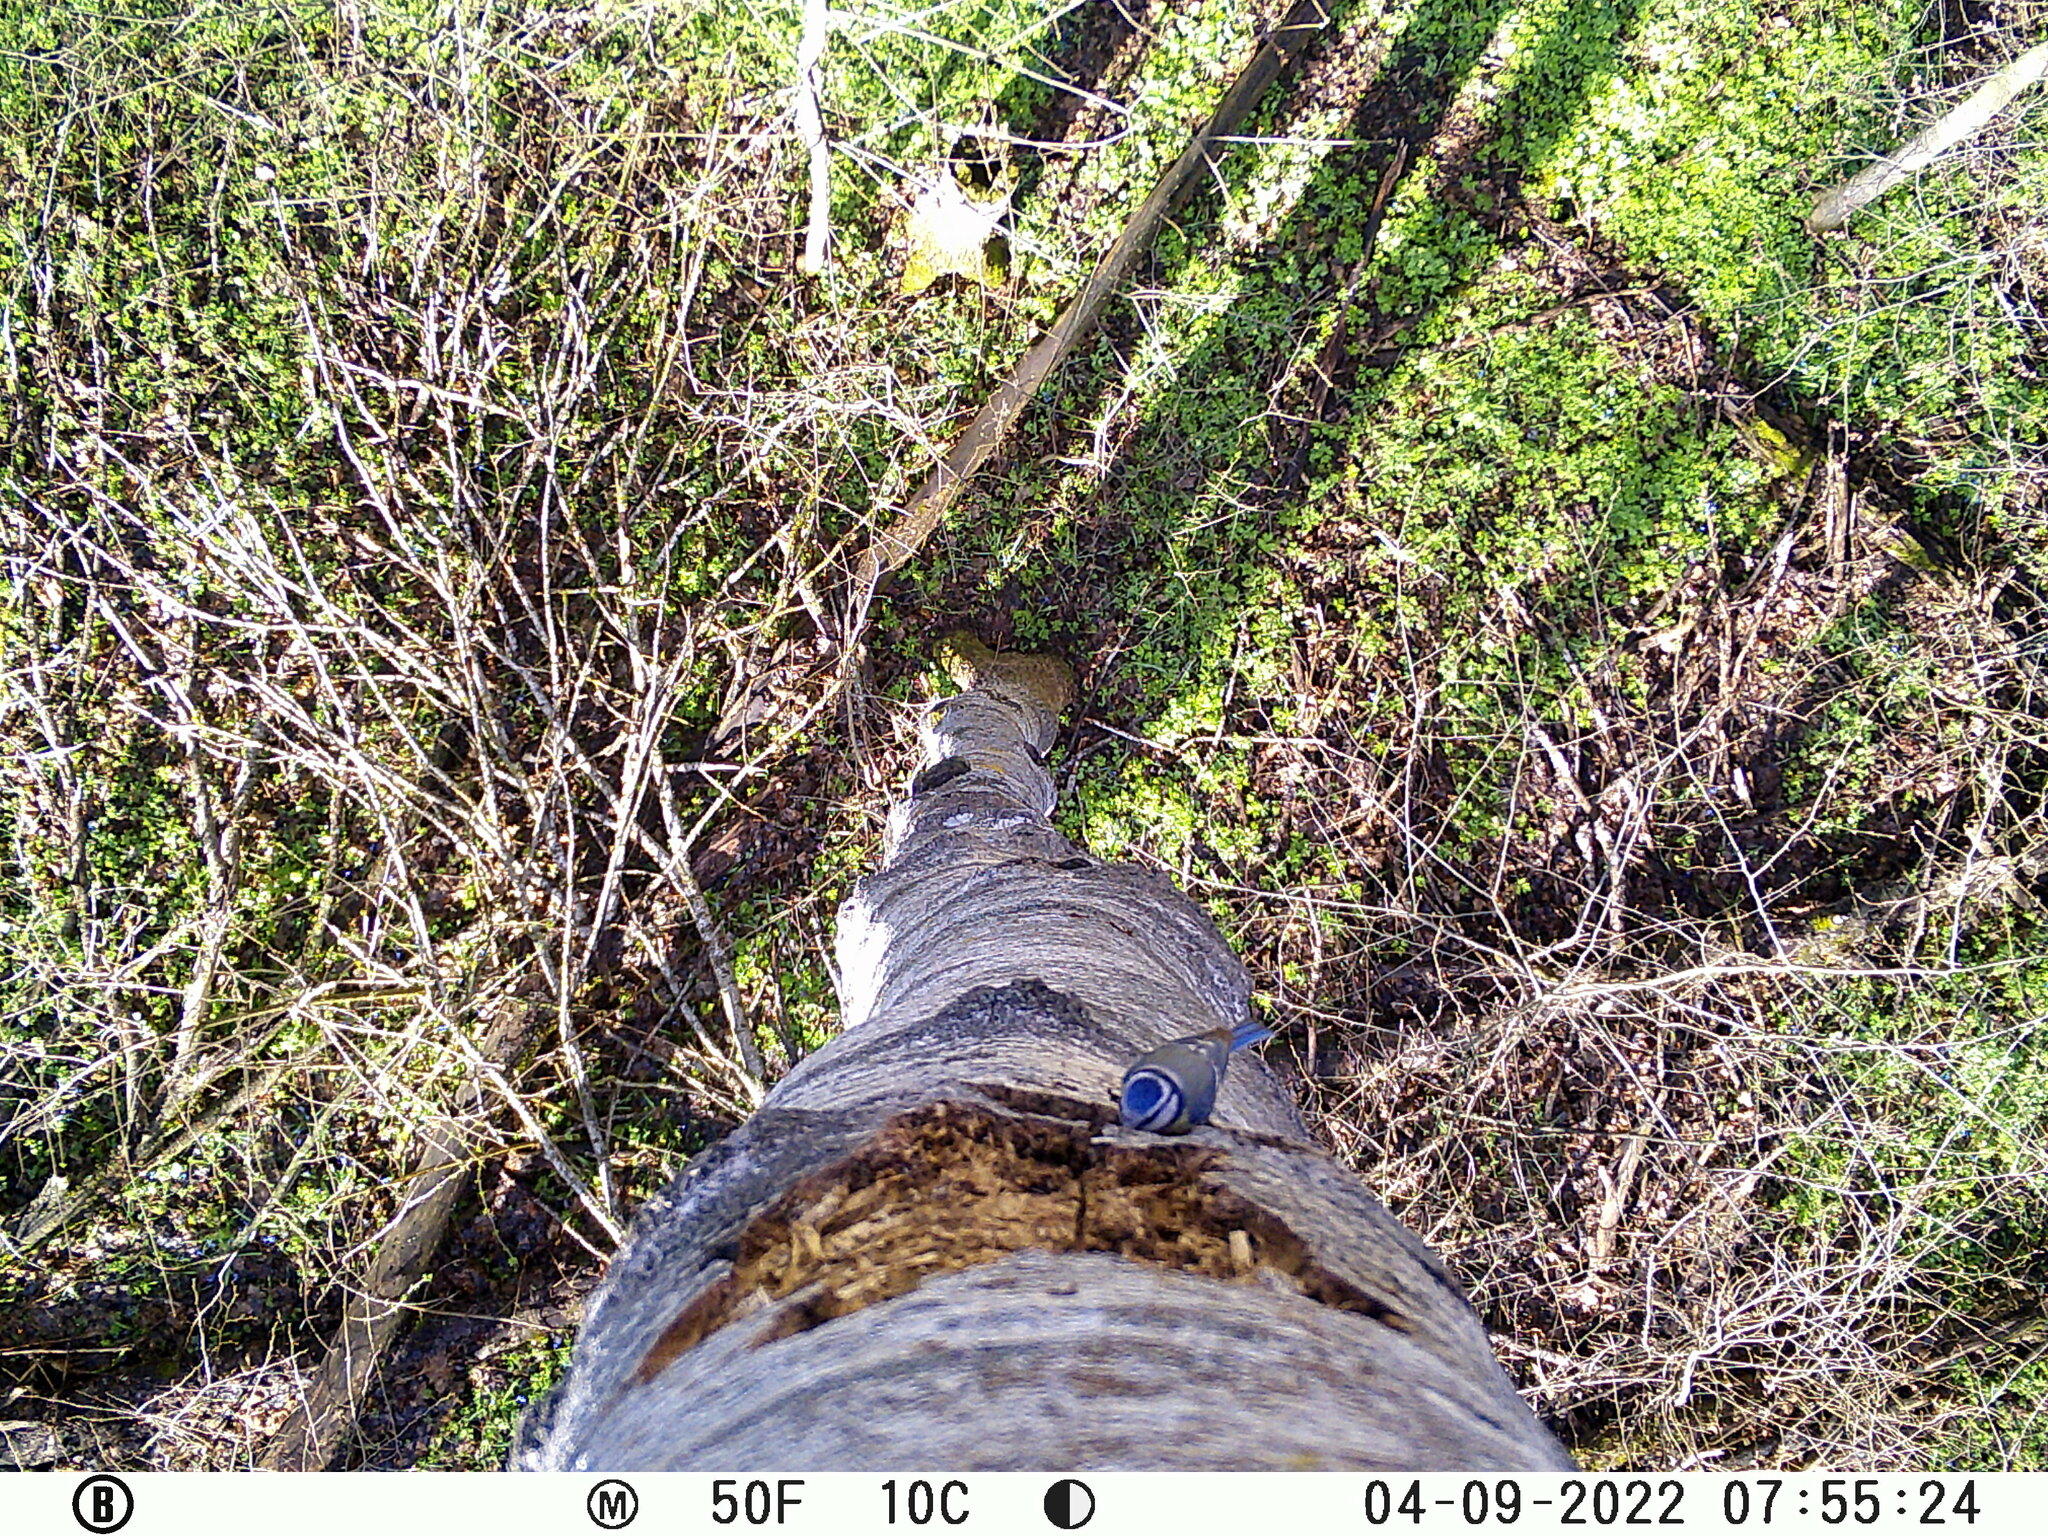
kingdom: Animalia
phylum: Chordata
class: Aves
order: Passeriformes
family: Paridae
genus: Cyanistes
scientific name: Cyanistes caeruleus
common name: Eurasian blue tit
